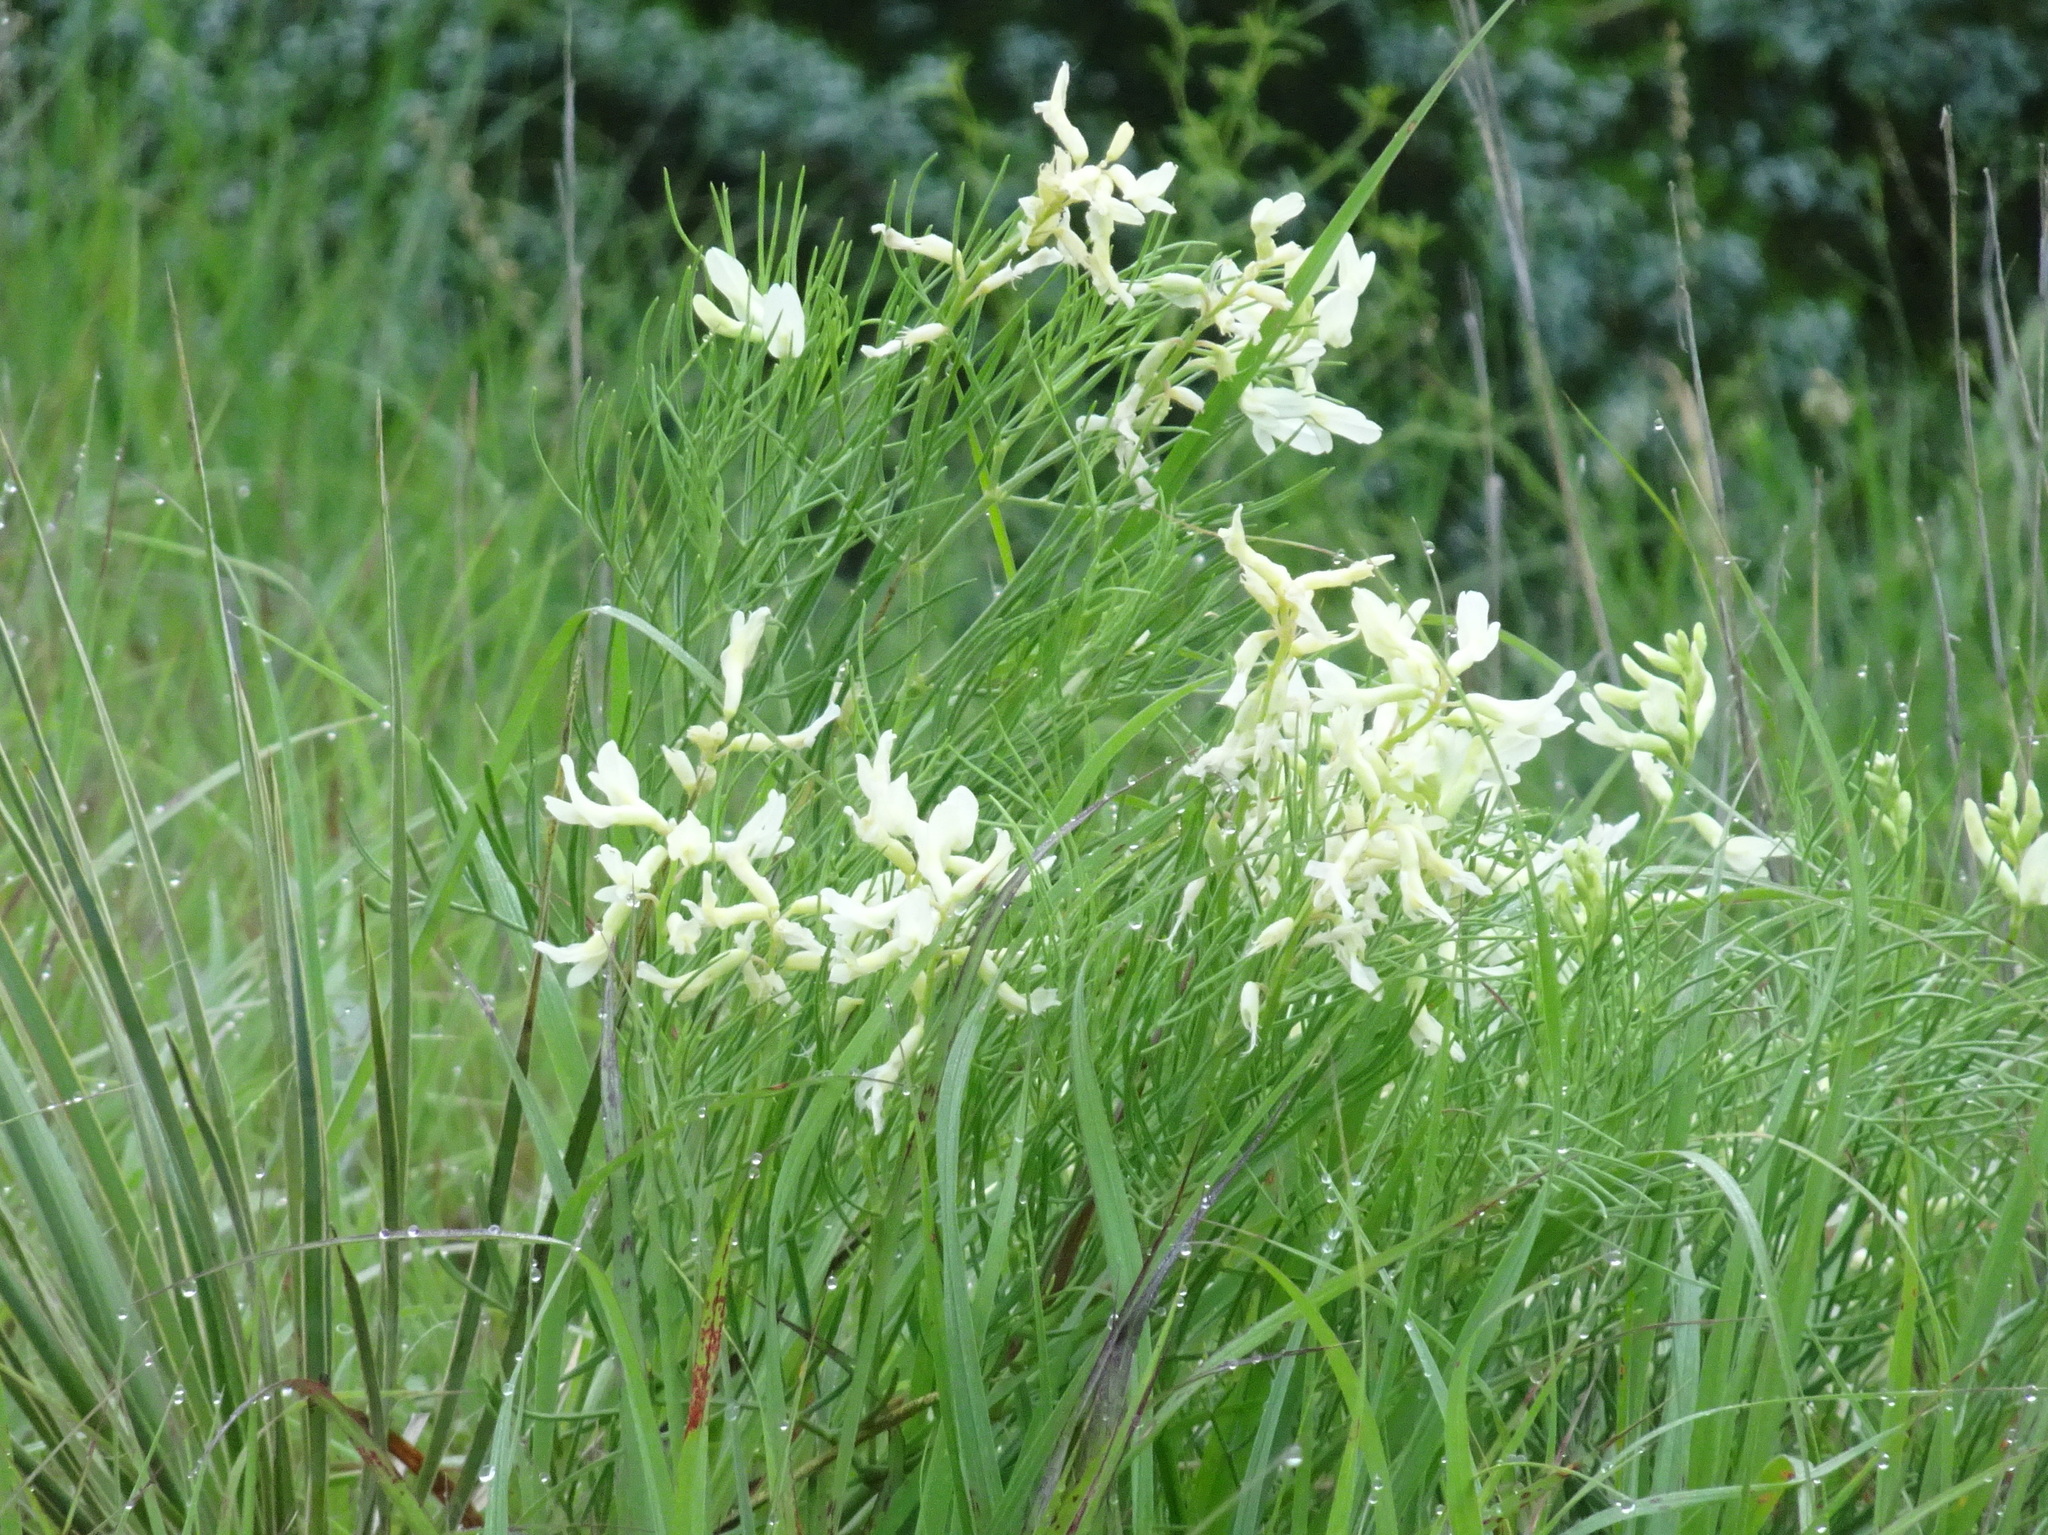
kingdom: Plantae
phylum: Tracheophyta
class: Magnoliopsida
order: Fabales
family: Fabaceae
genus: Astragalus
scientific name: Astragalus pectinatus
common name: Tine-leaf milk-vetch
